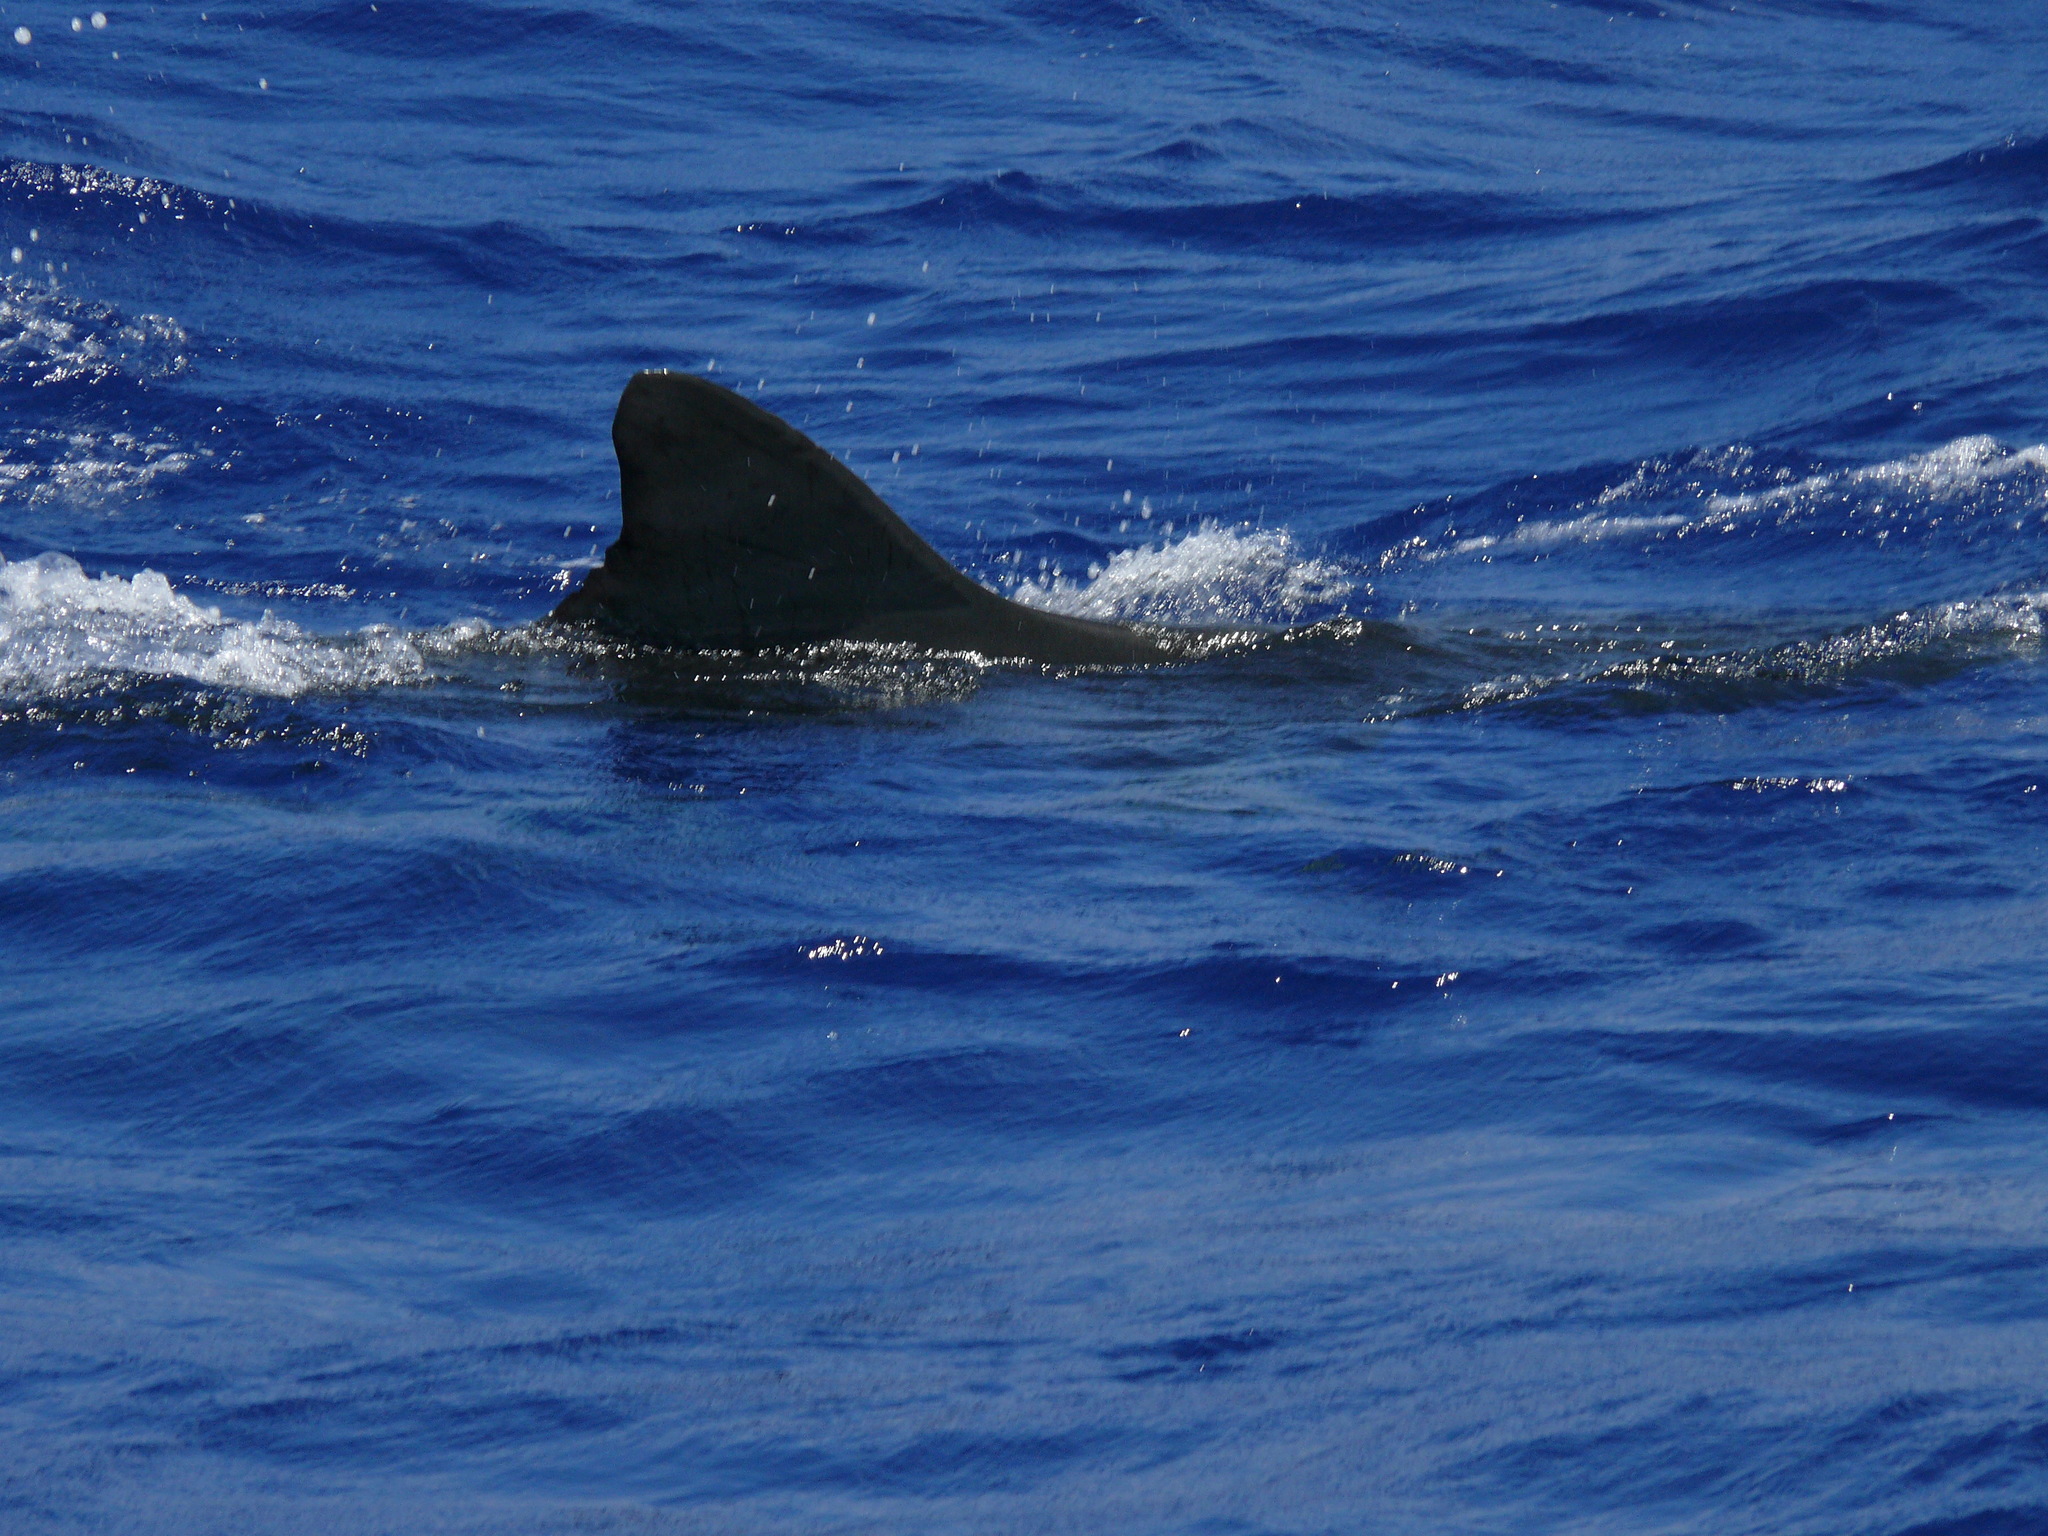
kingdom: Animalia
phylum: Chordata
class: Elasmobranchii
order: Carcharhiniformes
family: Carcharhinidae
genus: Galeocerdo
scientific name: Galeocerdo cuvier
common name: Tiger shark
